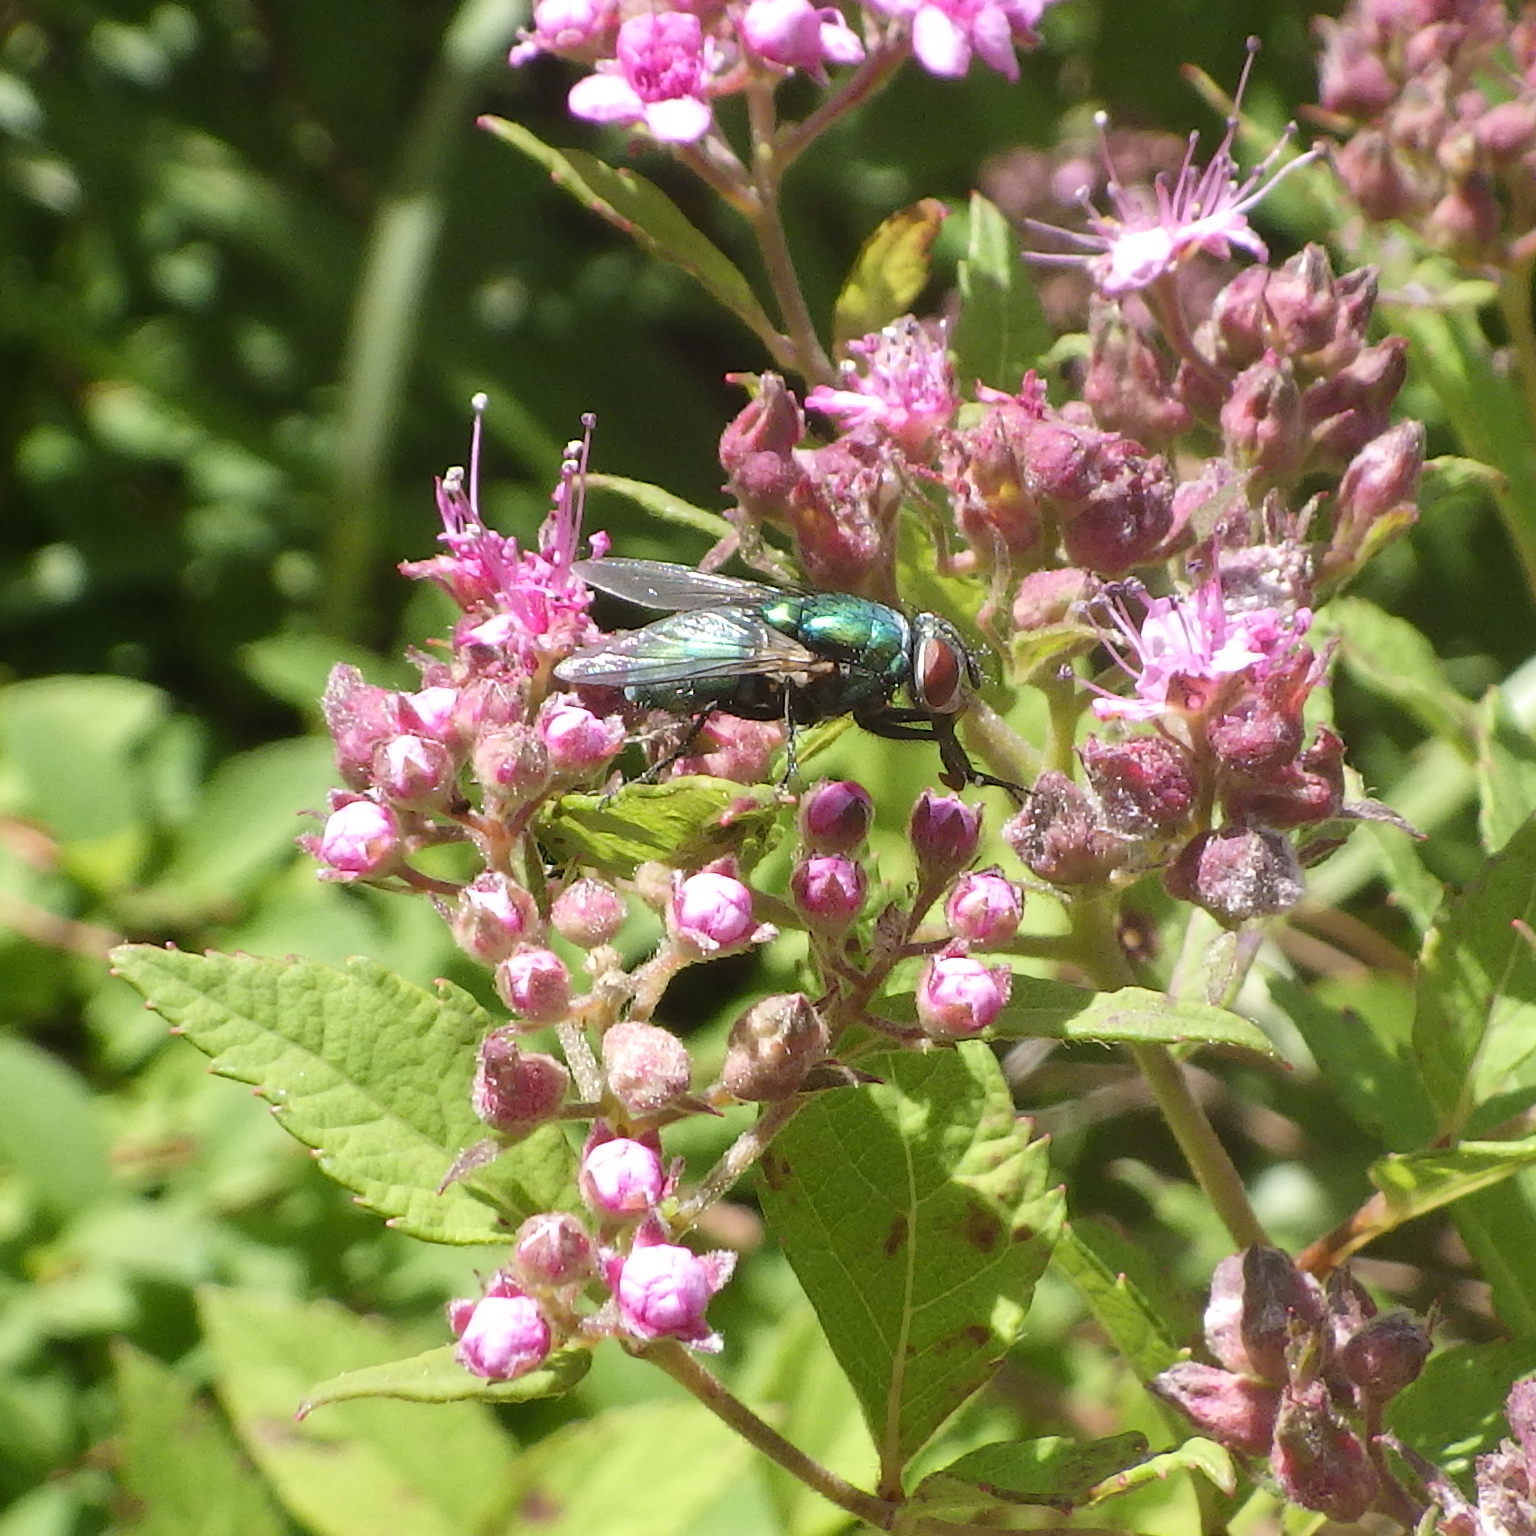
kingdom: Animalia
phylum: Arthropoda
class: Insecta
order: Diptera
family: Calliphoridae
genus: Lucilia
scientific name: Lucilia sericata
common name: Blow fly
